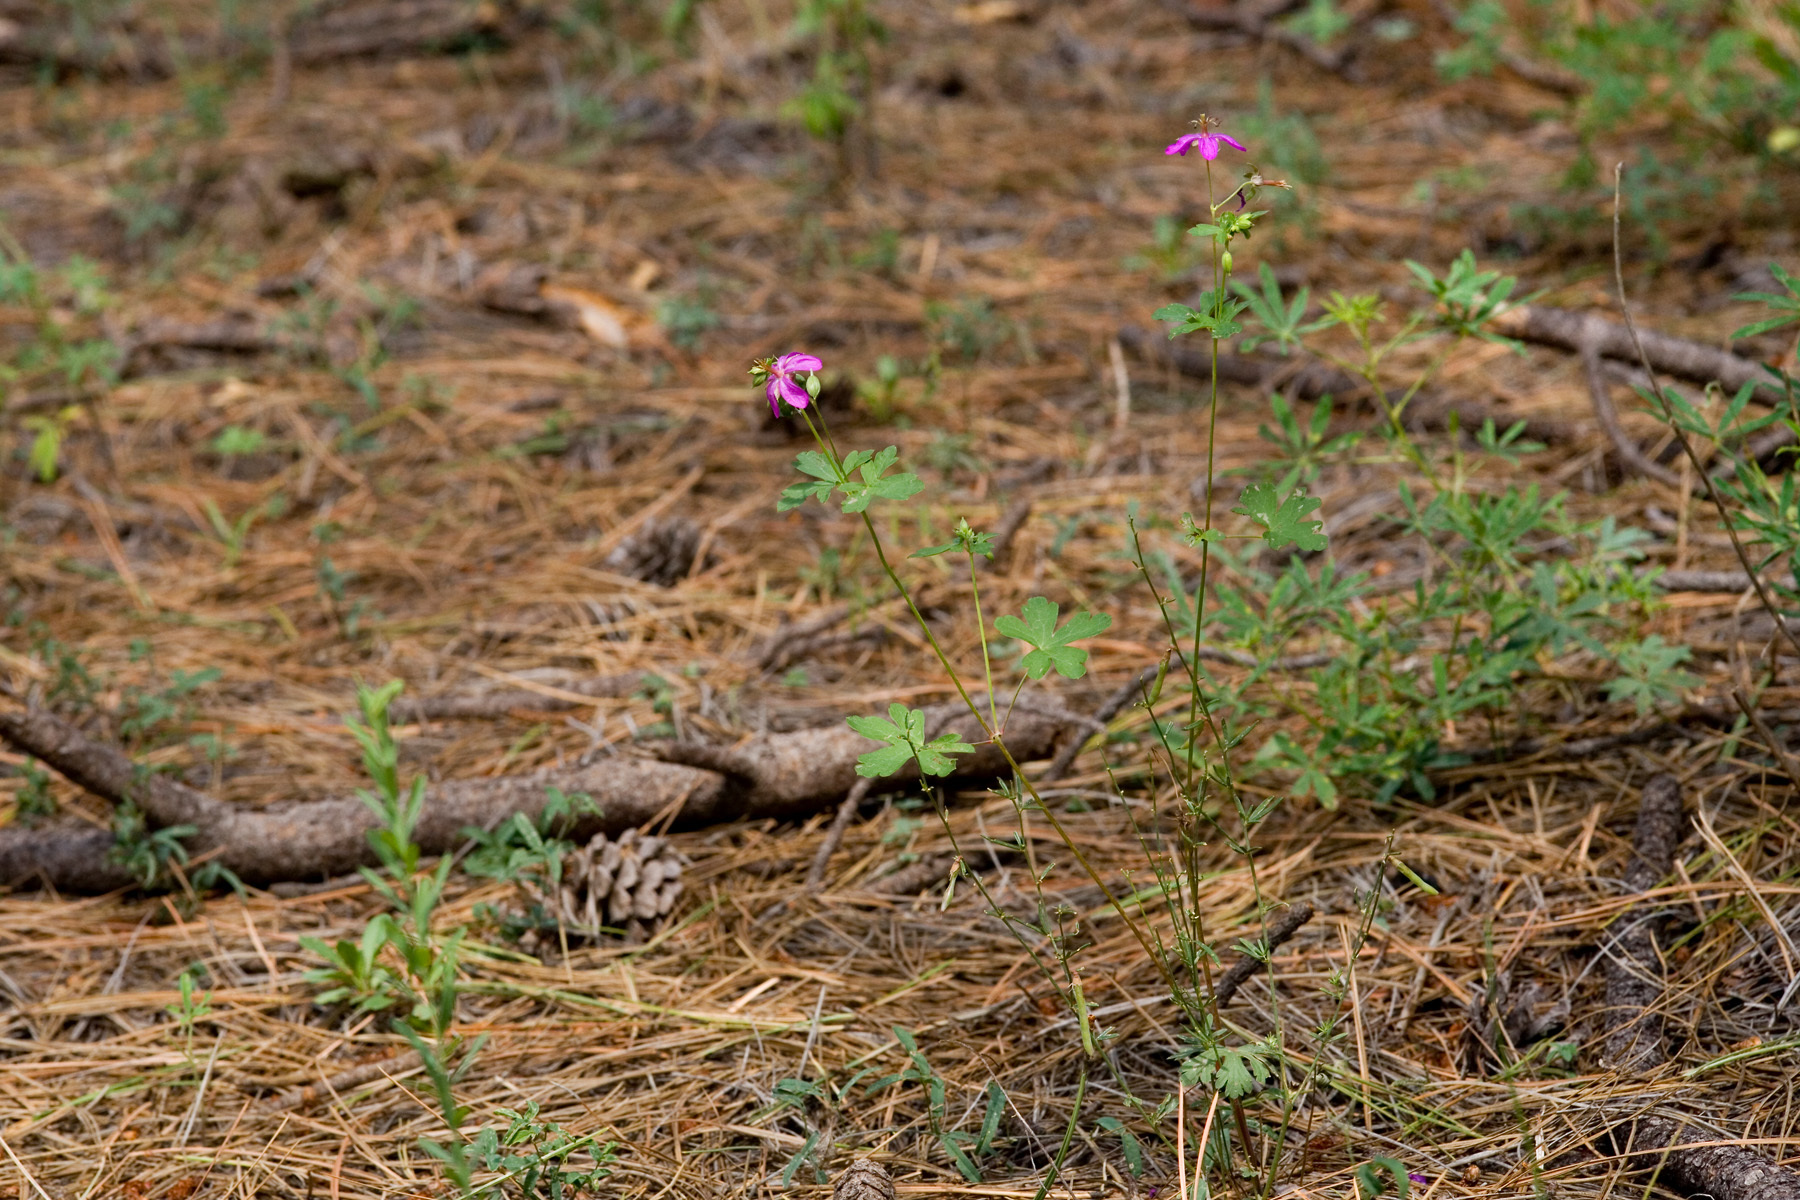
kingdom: Plantae
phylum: Tracheophyta
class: Magnoliopsida
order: Geraniales
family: Geraniaceae
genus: Geranium
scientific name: Geranium caespitosum
